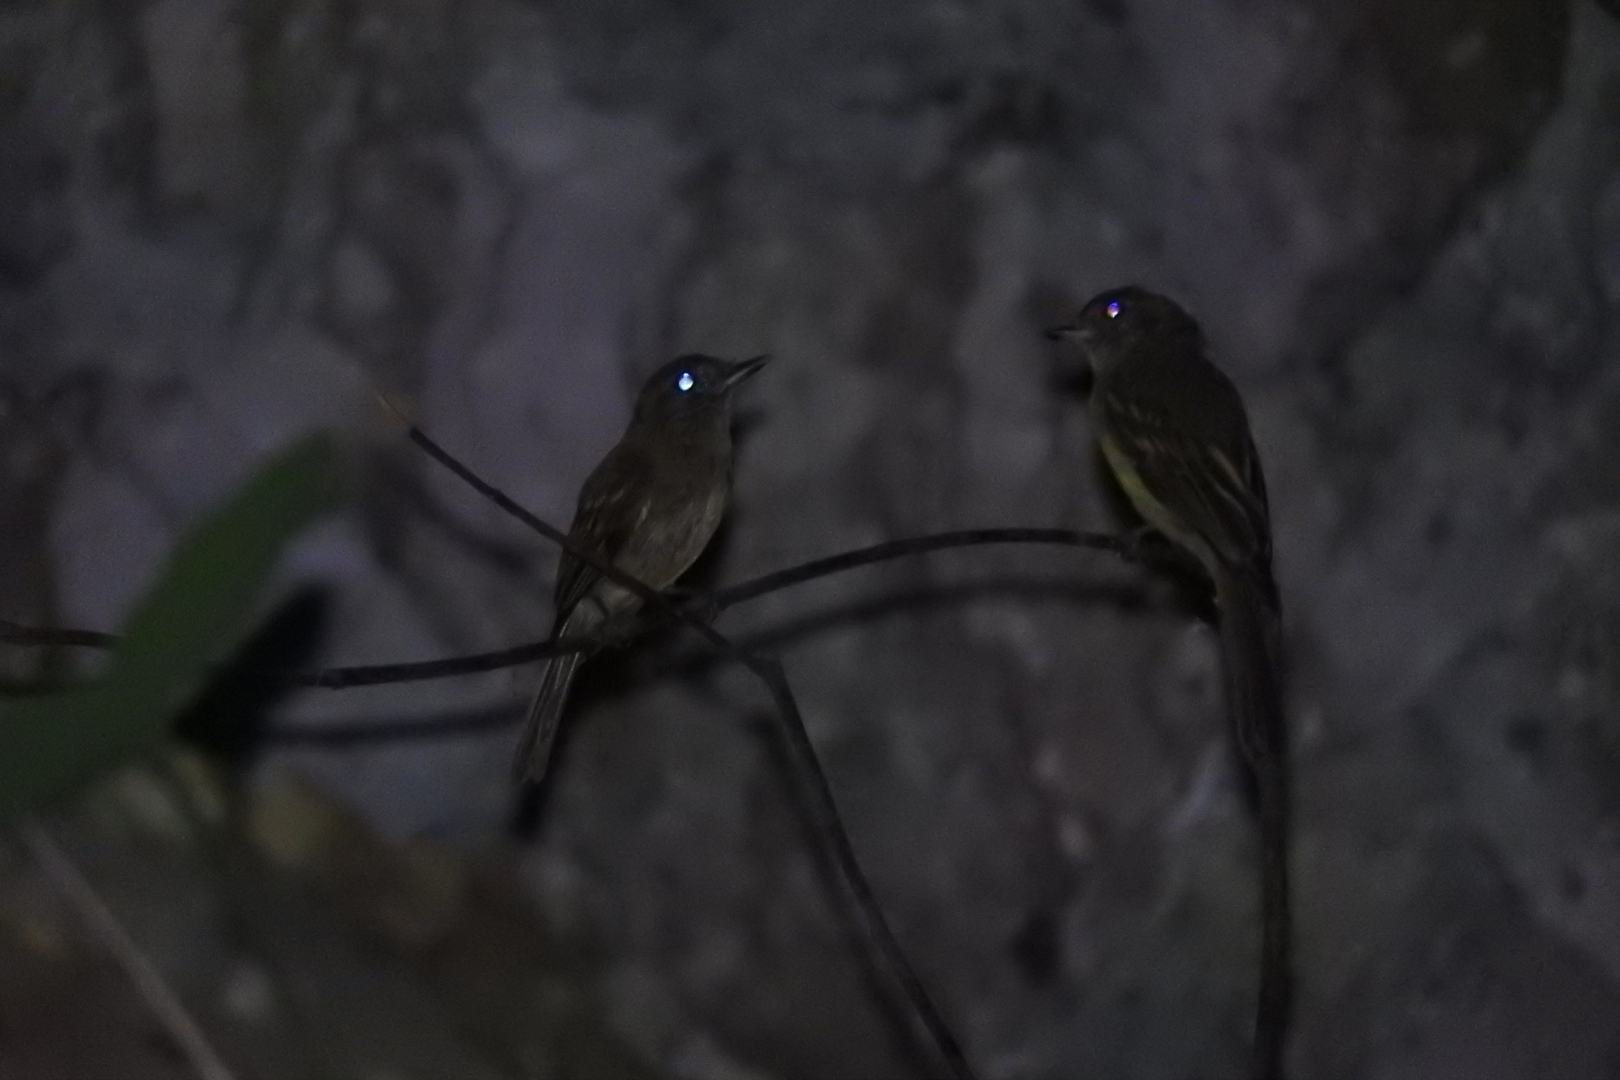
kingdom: Animalia
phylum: Chordata
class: Aves
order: Passeriformes
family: Tyrannidae
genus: Rhynchocyclus
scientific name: Rhynchocyclus brevirostris
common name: Eye-ringed flatbill
